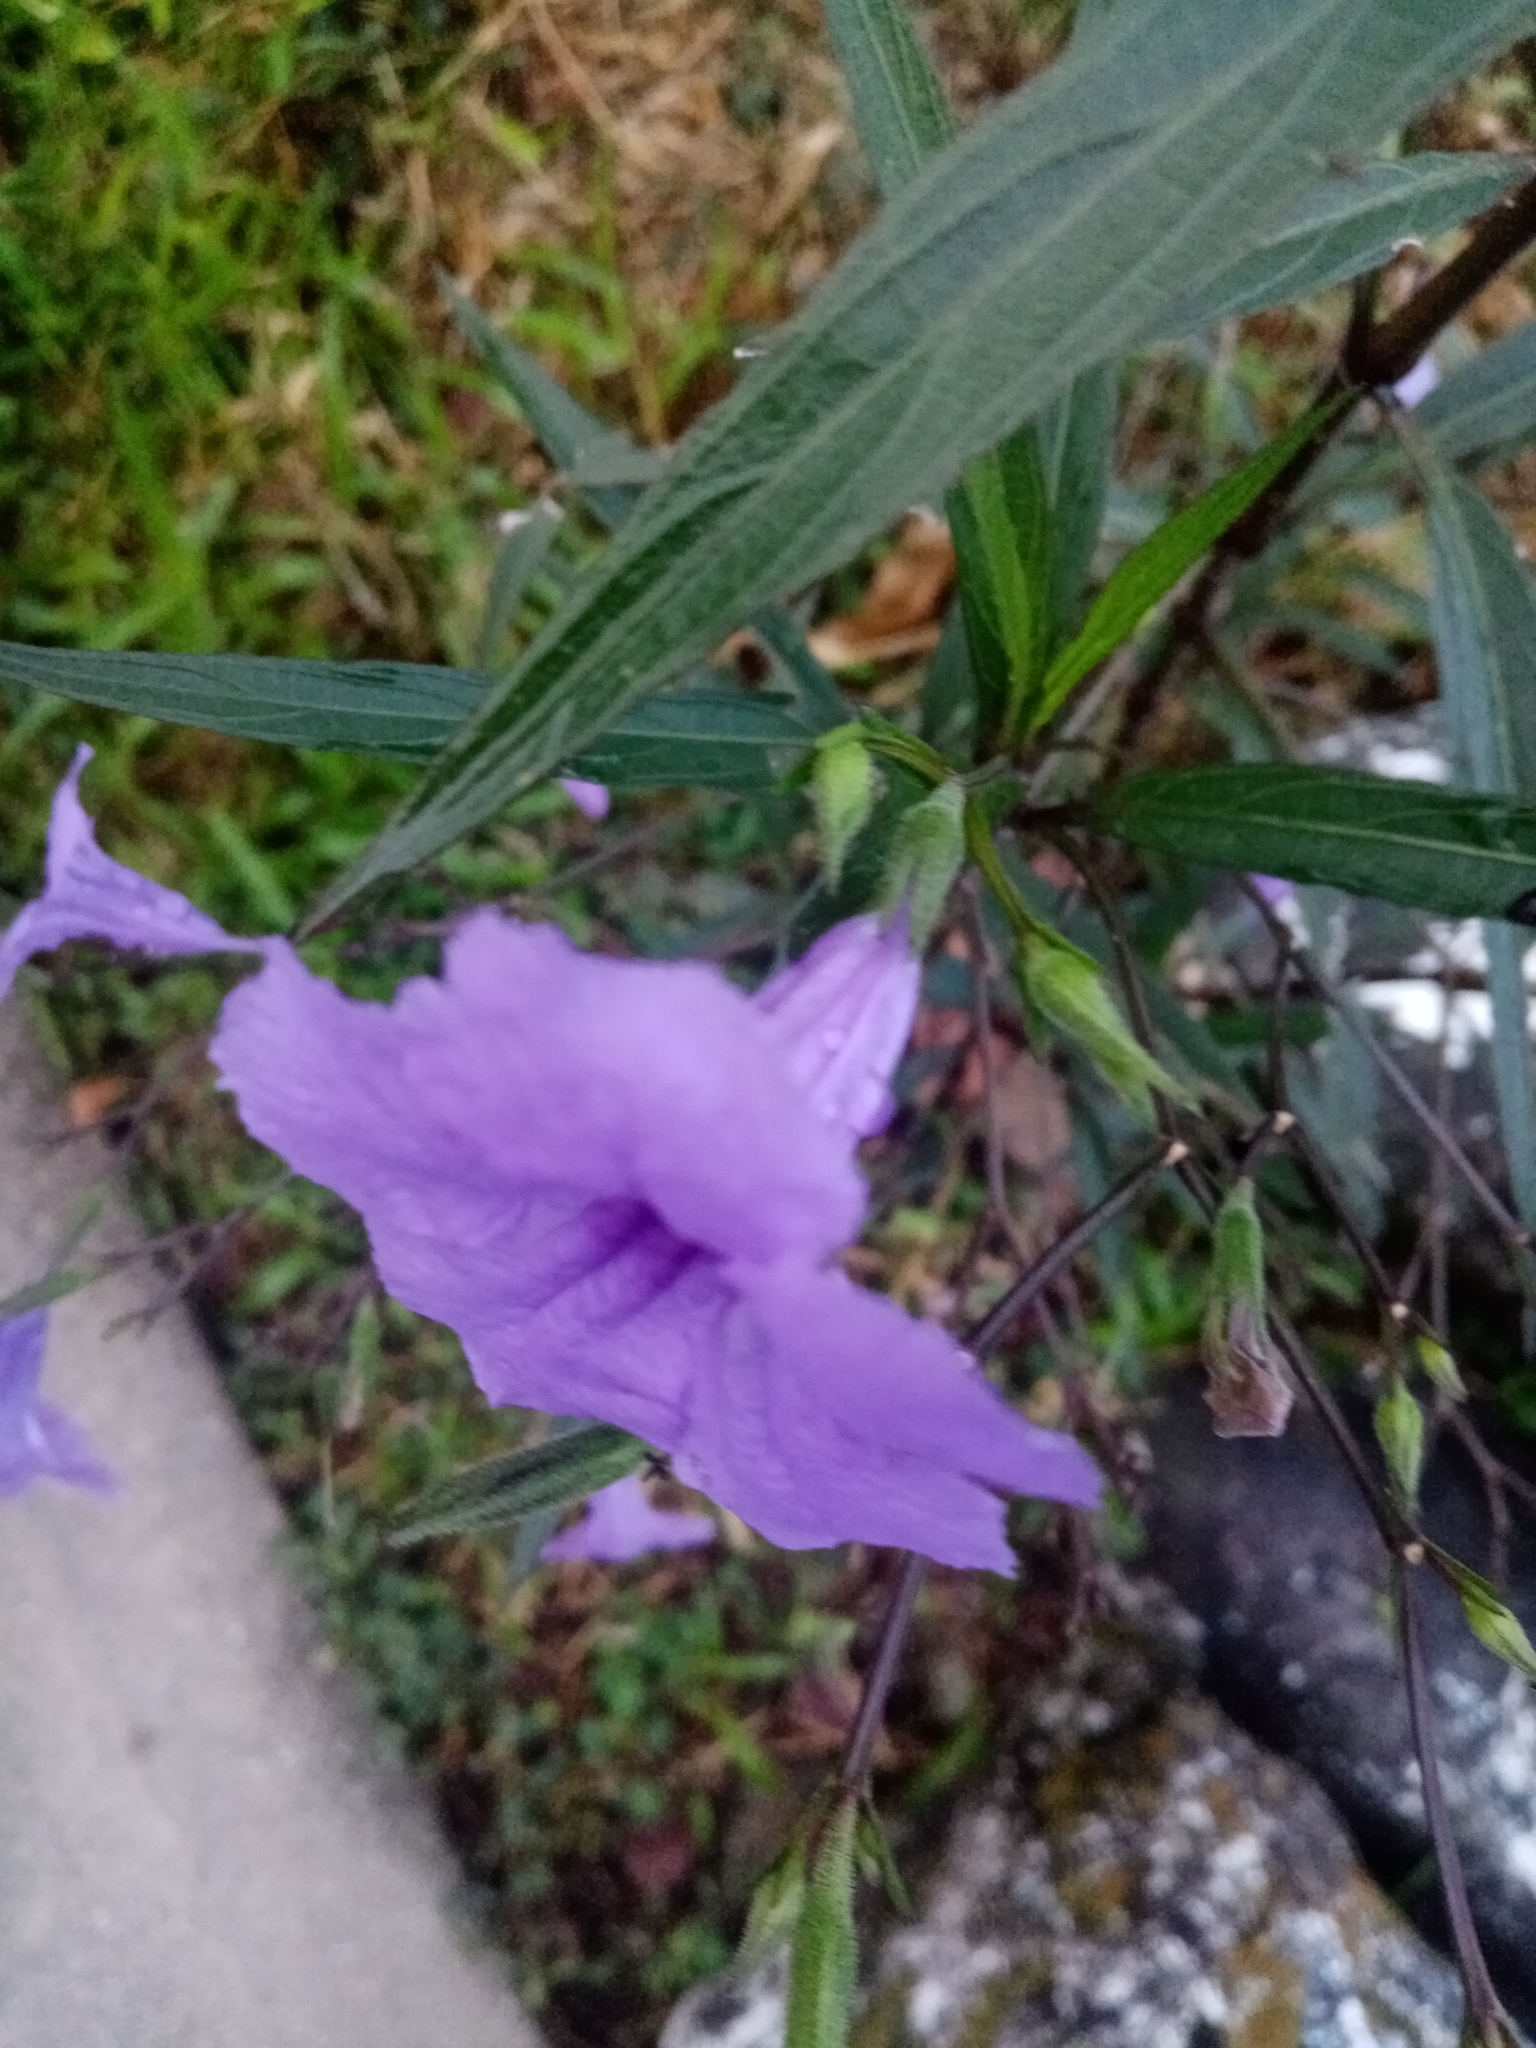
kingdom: Plantae
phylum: Tracheophyta
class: Magnoliopsida
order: Lamiales
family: Acanthaceae
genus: Ruellia
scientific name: Ruellia simplex
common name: Softseed wild petunia
